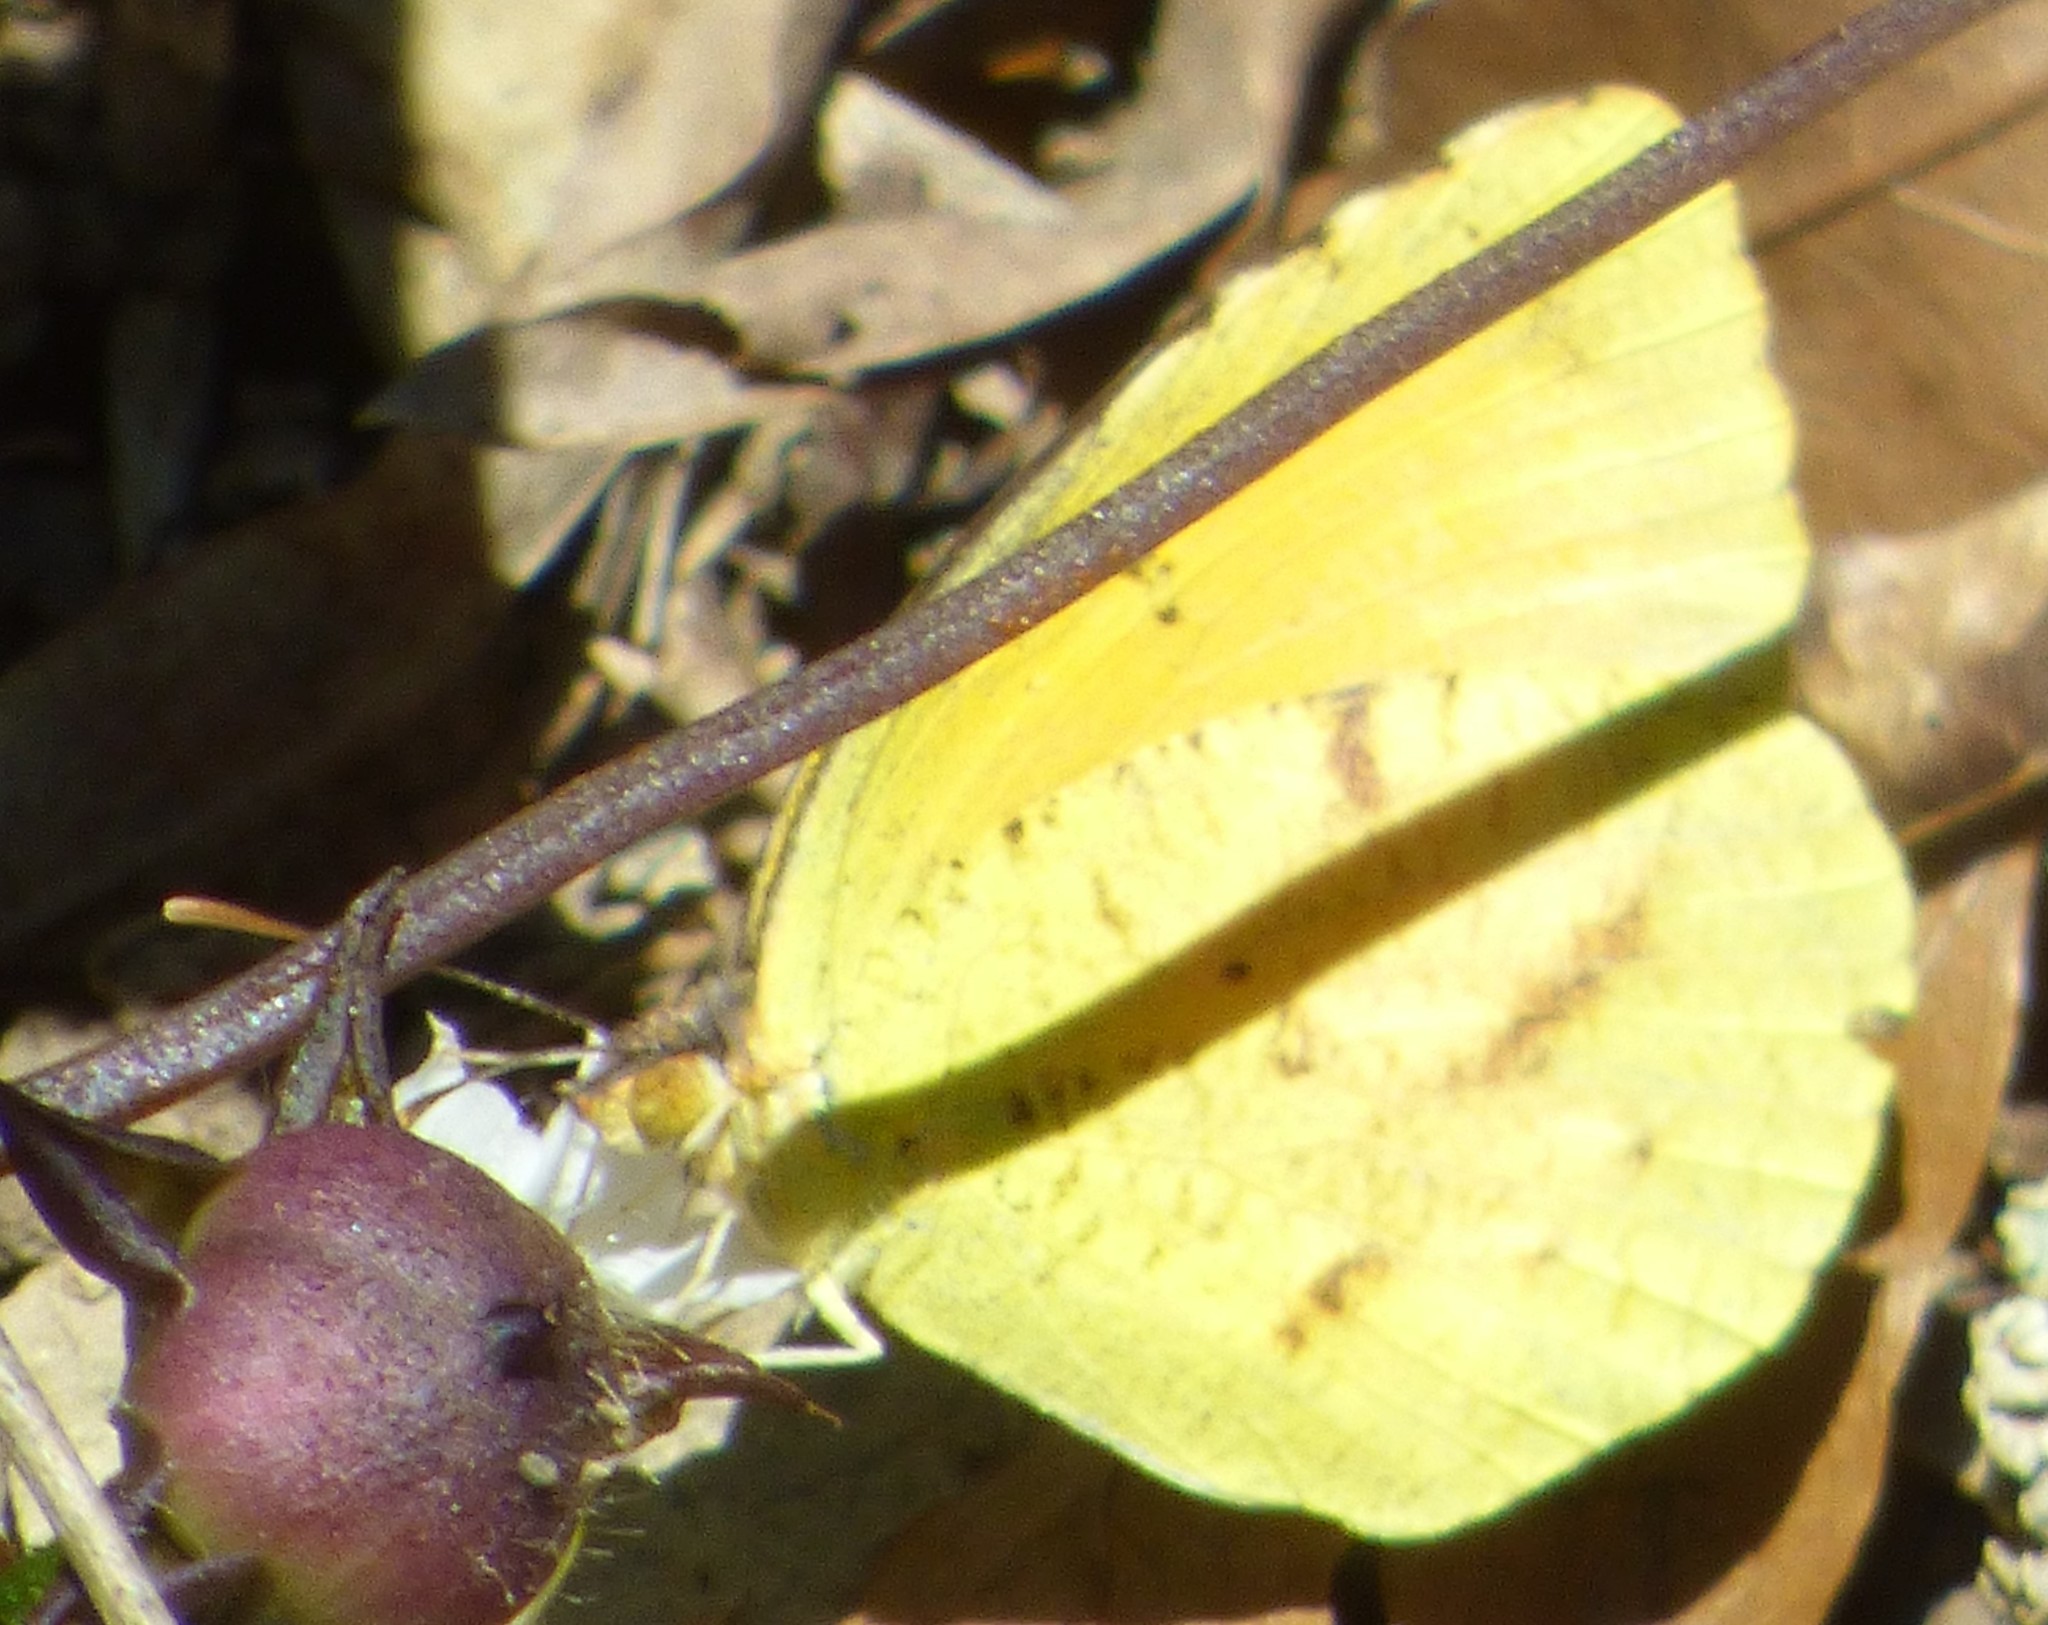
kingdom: Animalia
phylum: Arthropoda
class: Insecta
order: Lepidoptera
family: Pieridae
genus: Abaeis
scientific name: Abaeis nicippe
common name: Sleepy orange
